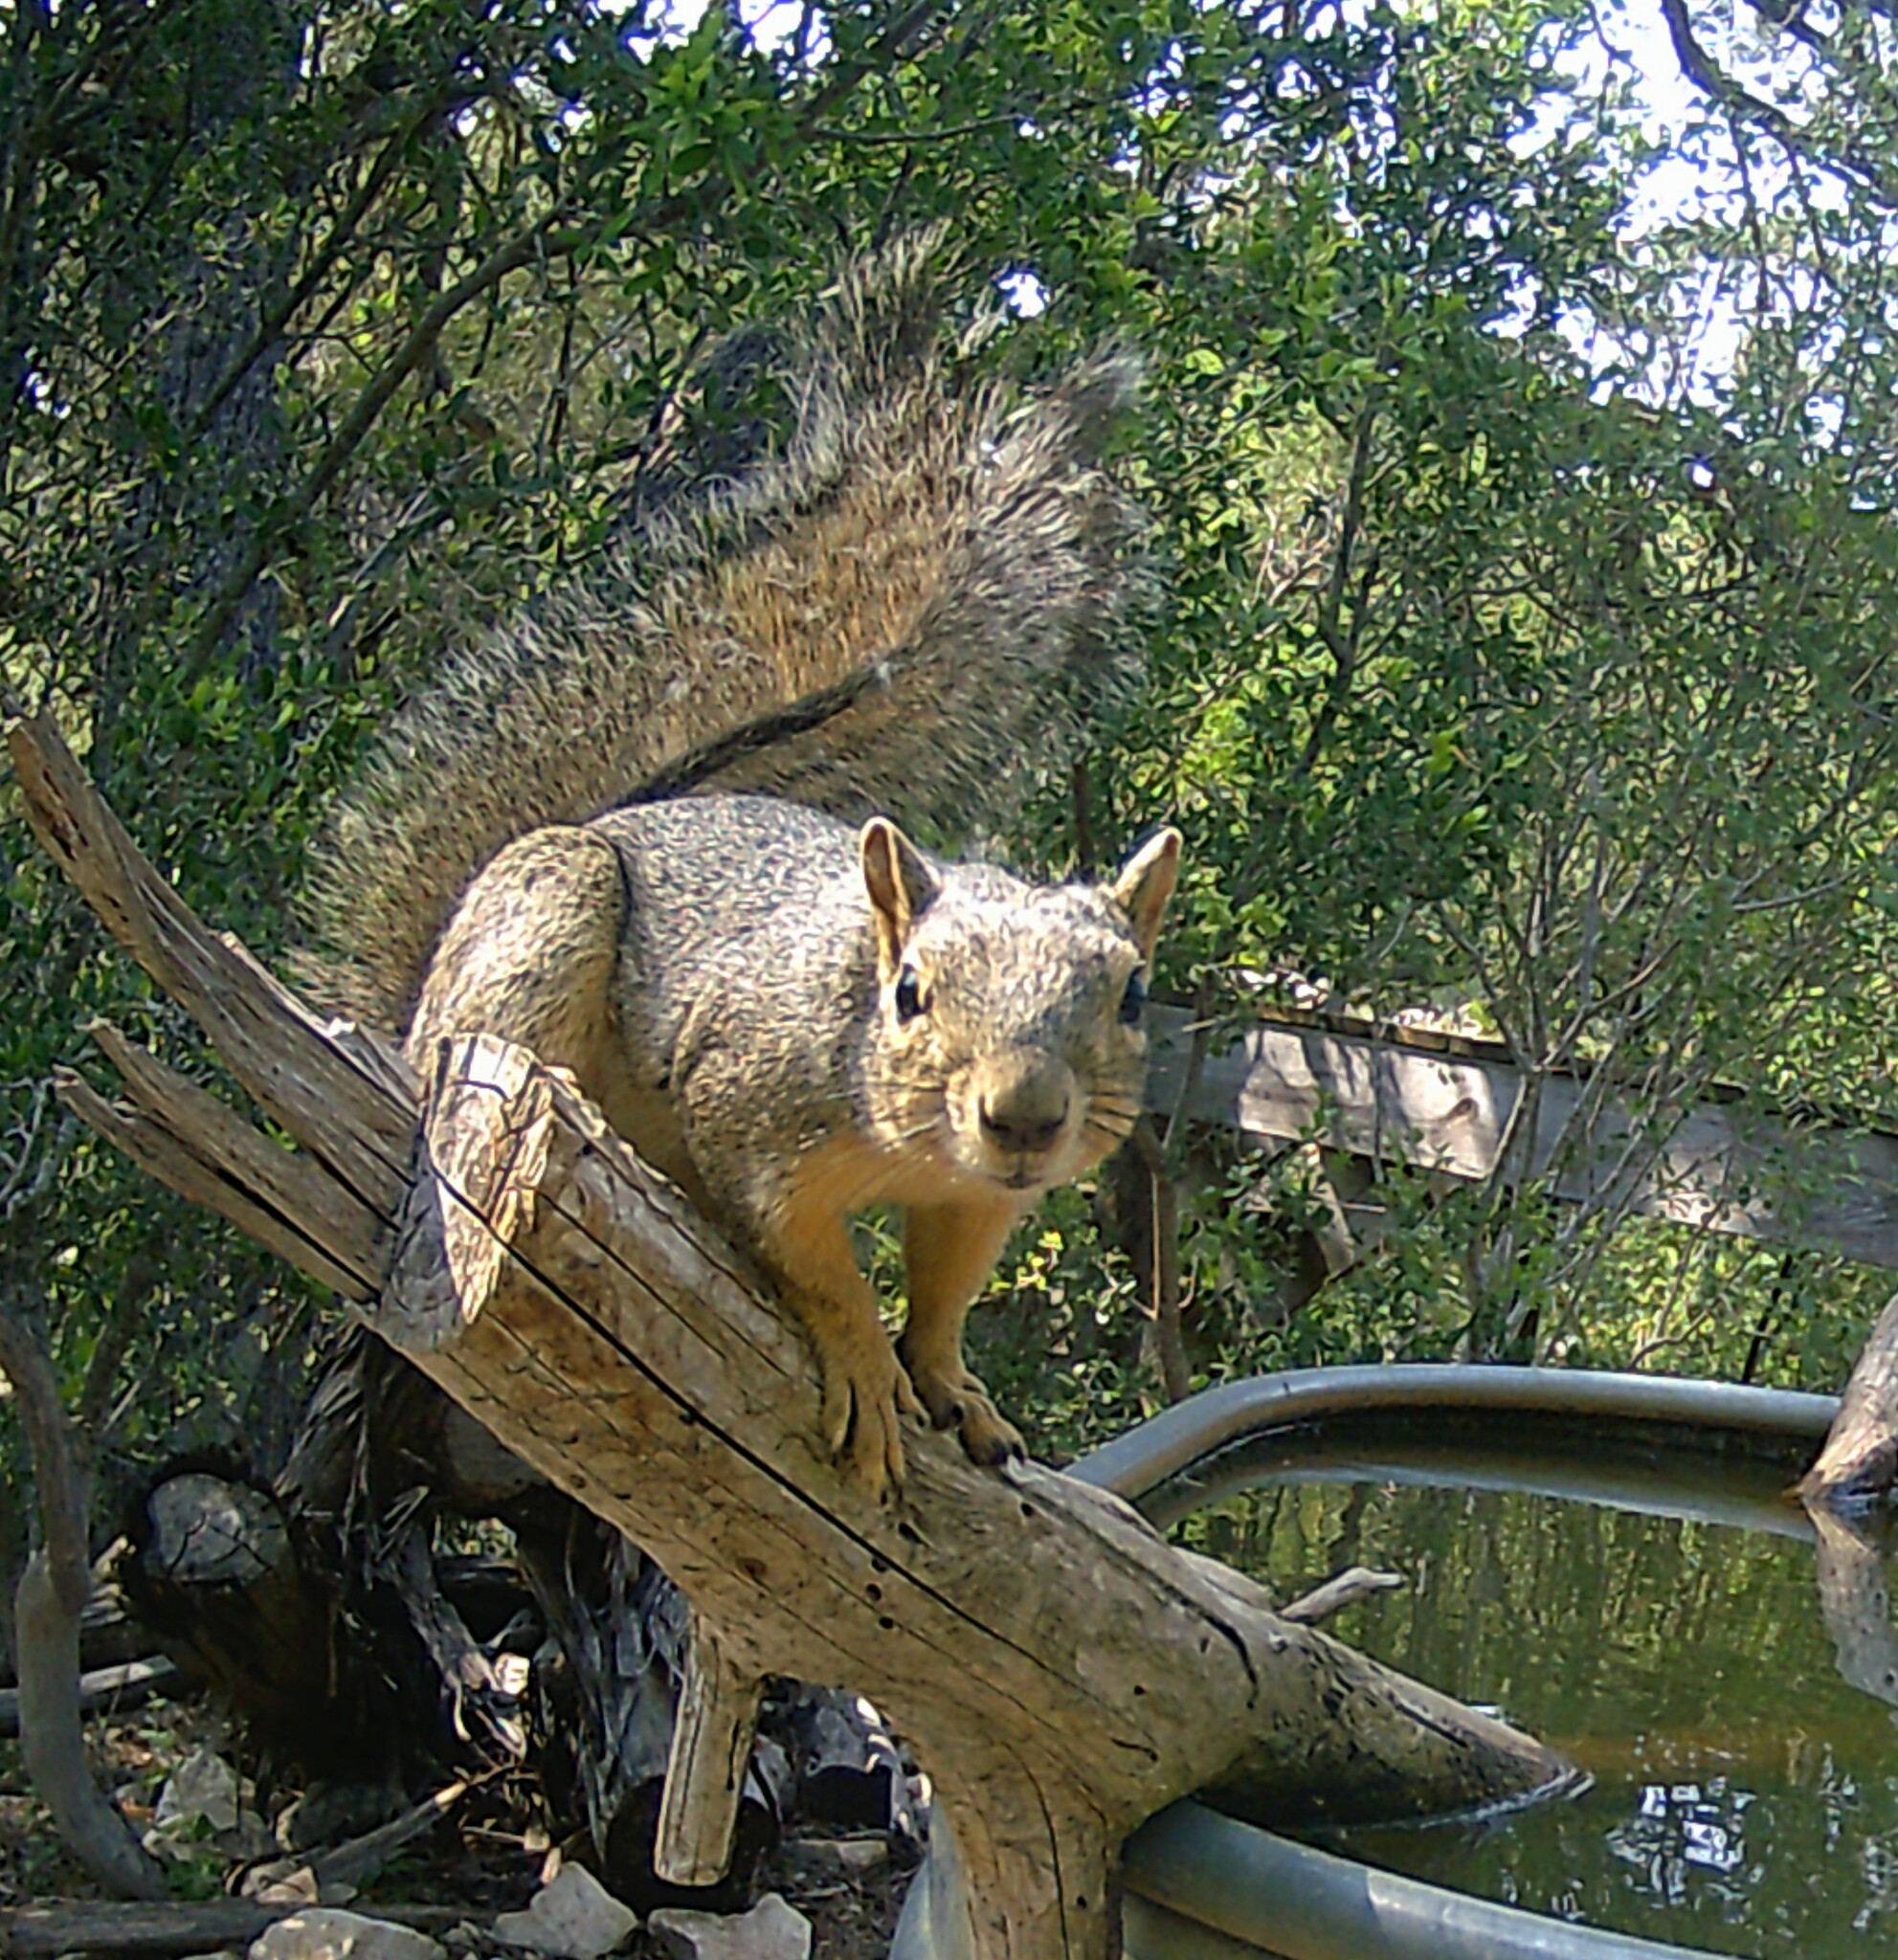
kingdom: Animalia
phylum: Chordata
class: Mammalia
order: Rodentia
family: Sciuridae
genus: Sciurus
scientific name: Sciurus niger
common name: Fox squirrel
